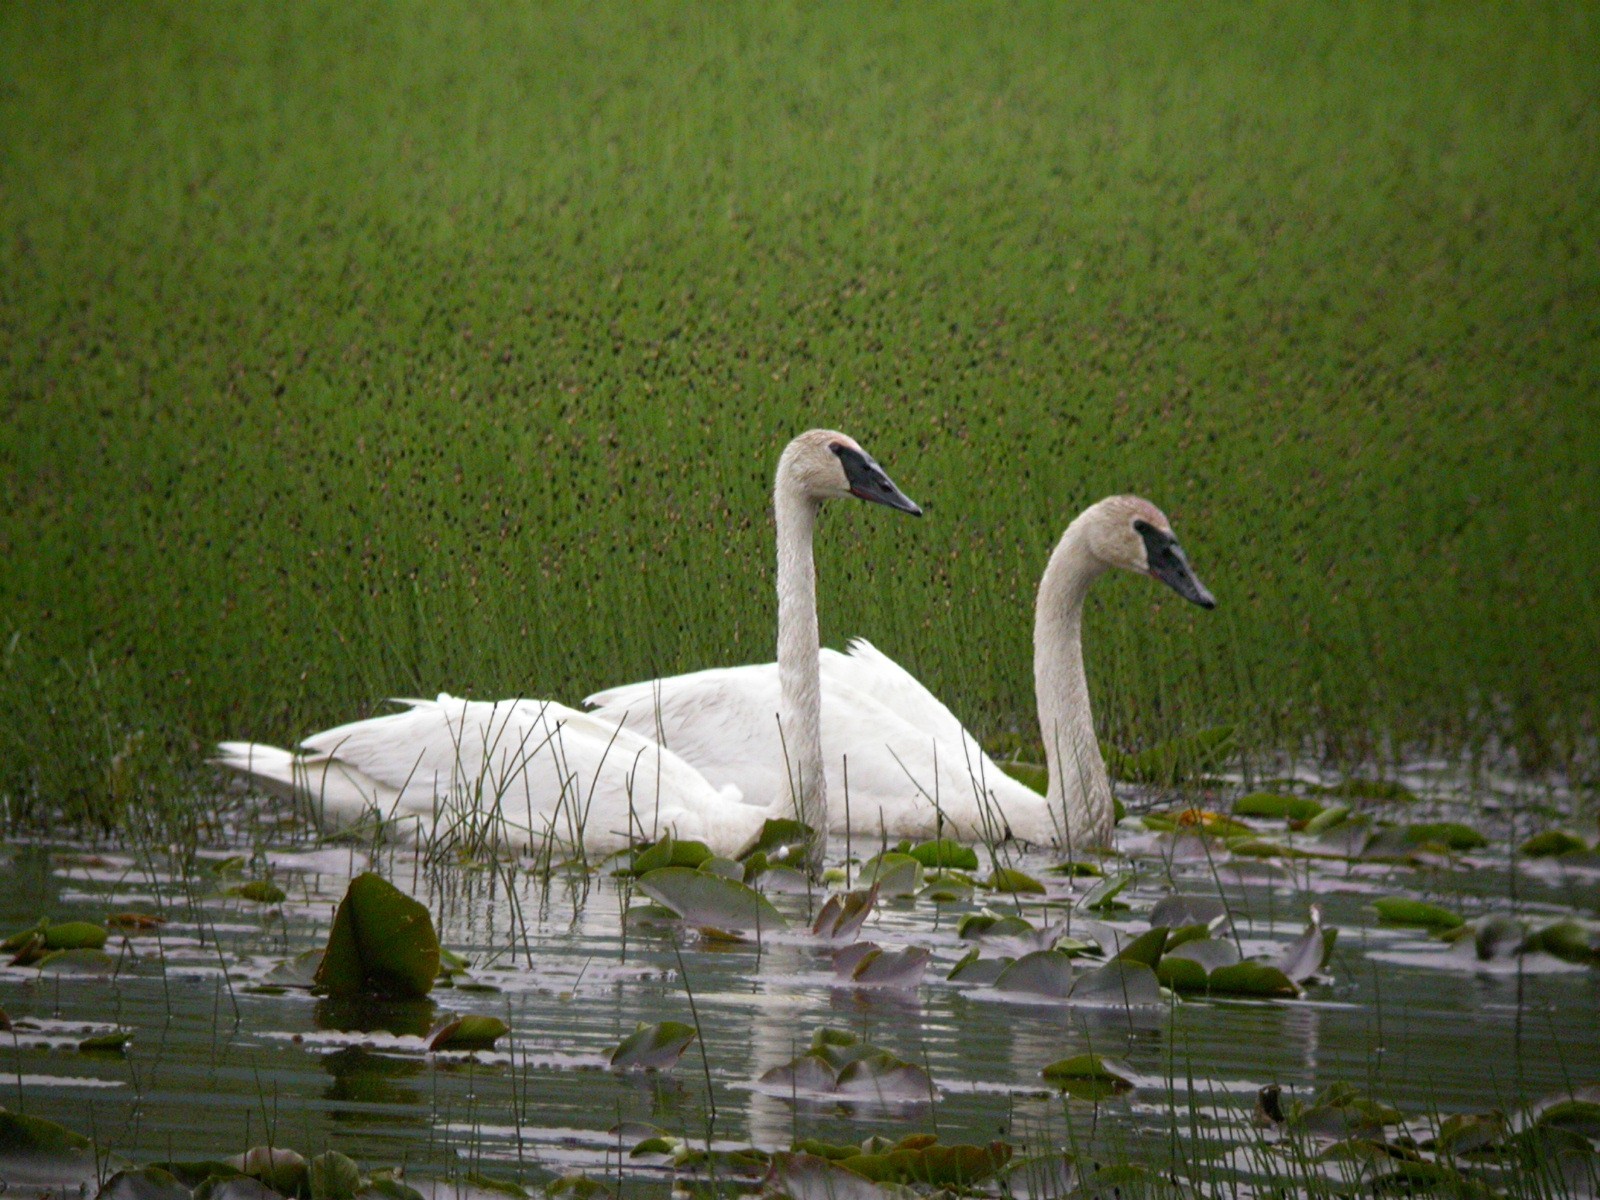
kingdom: Animalia
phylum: Chordata
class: Aves
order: Anseriformes
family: Anatidae
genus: Cygnus
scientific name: Cygnus buccinator
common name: Trumpeter swan
